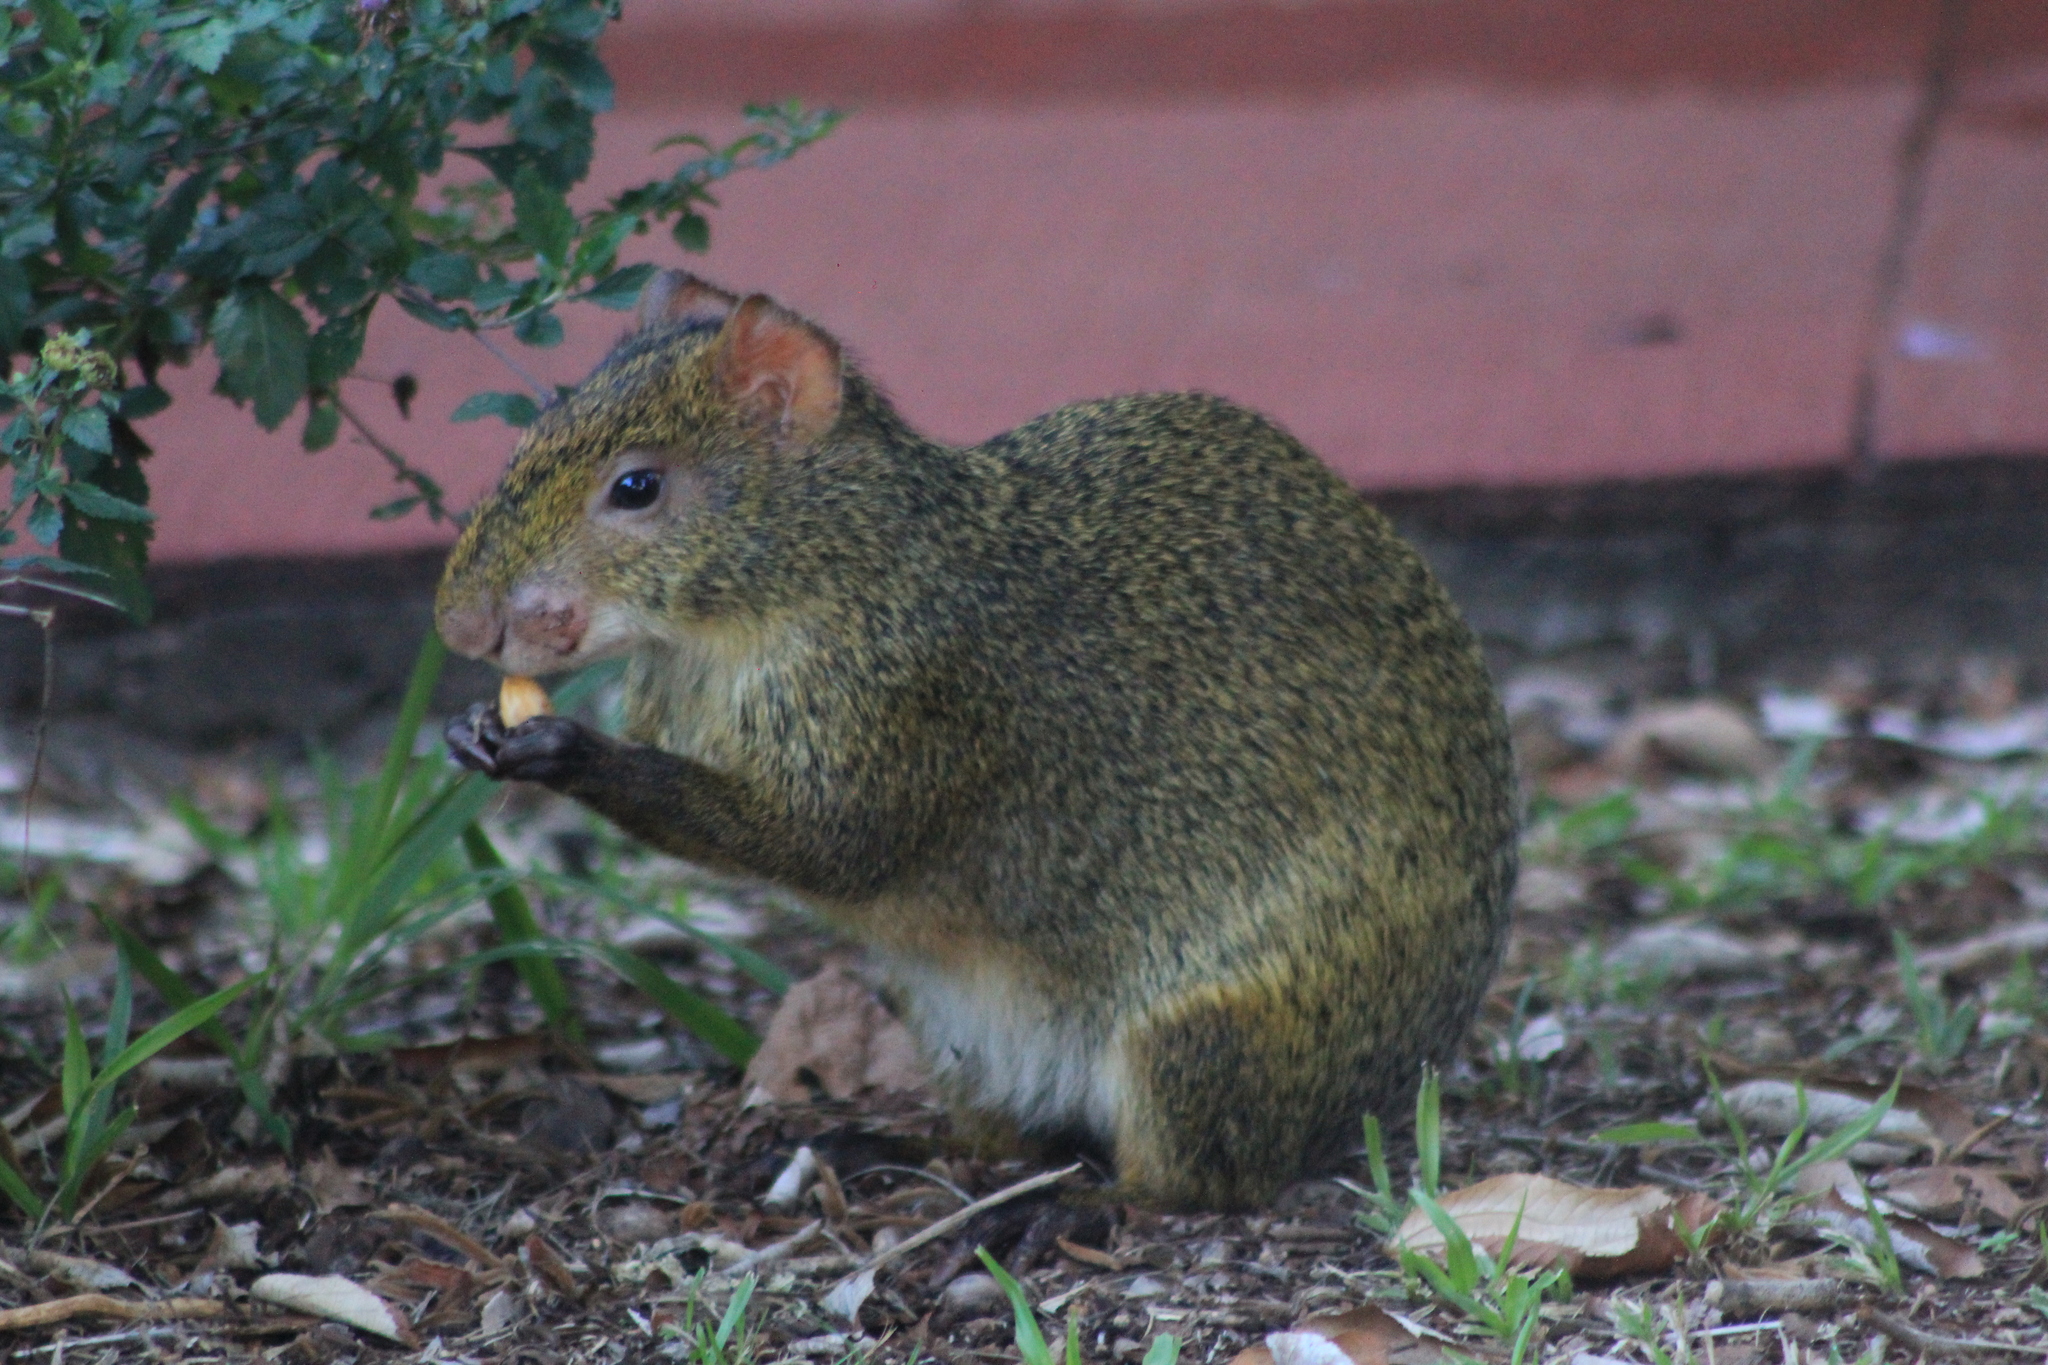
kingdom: Animalia
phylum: Chordata
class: Mammalia
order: Rodentia
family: Dasyproctidae
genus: Dasyprocta
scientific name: Dasyprocta azarae
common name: Azara's agouti
